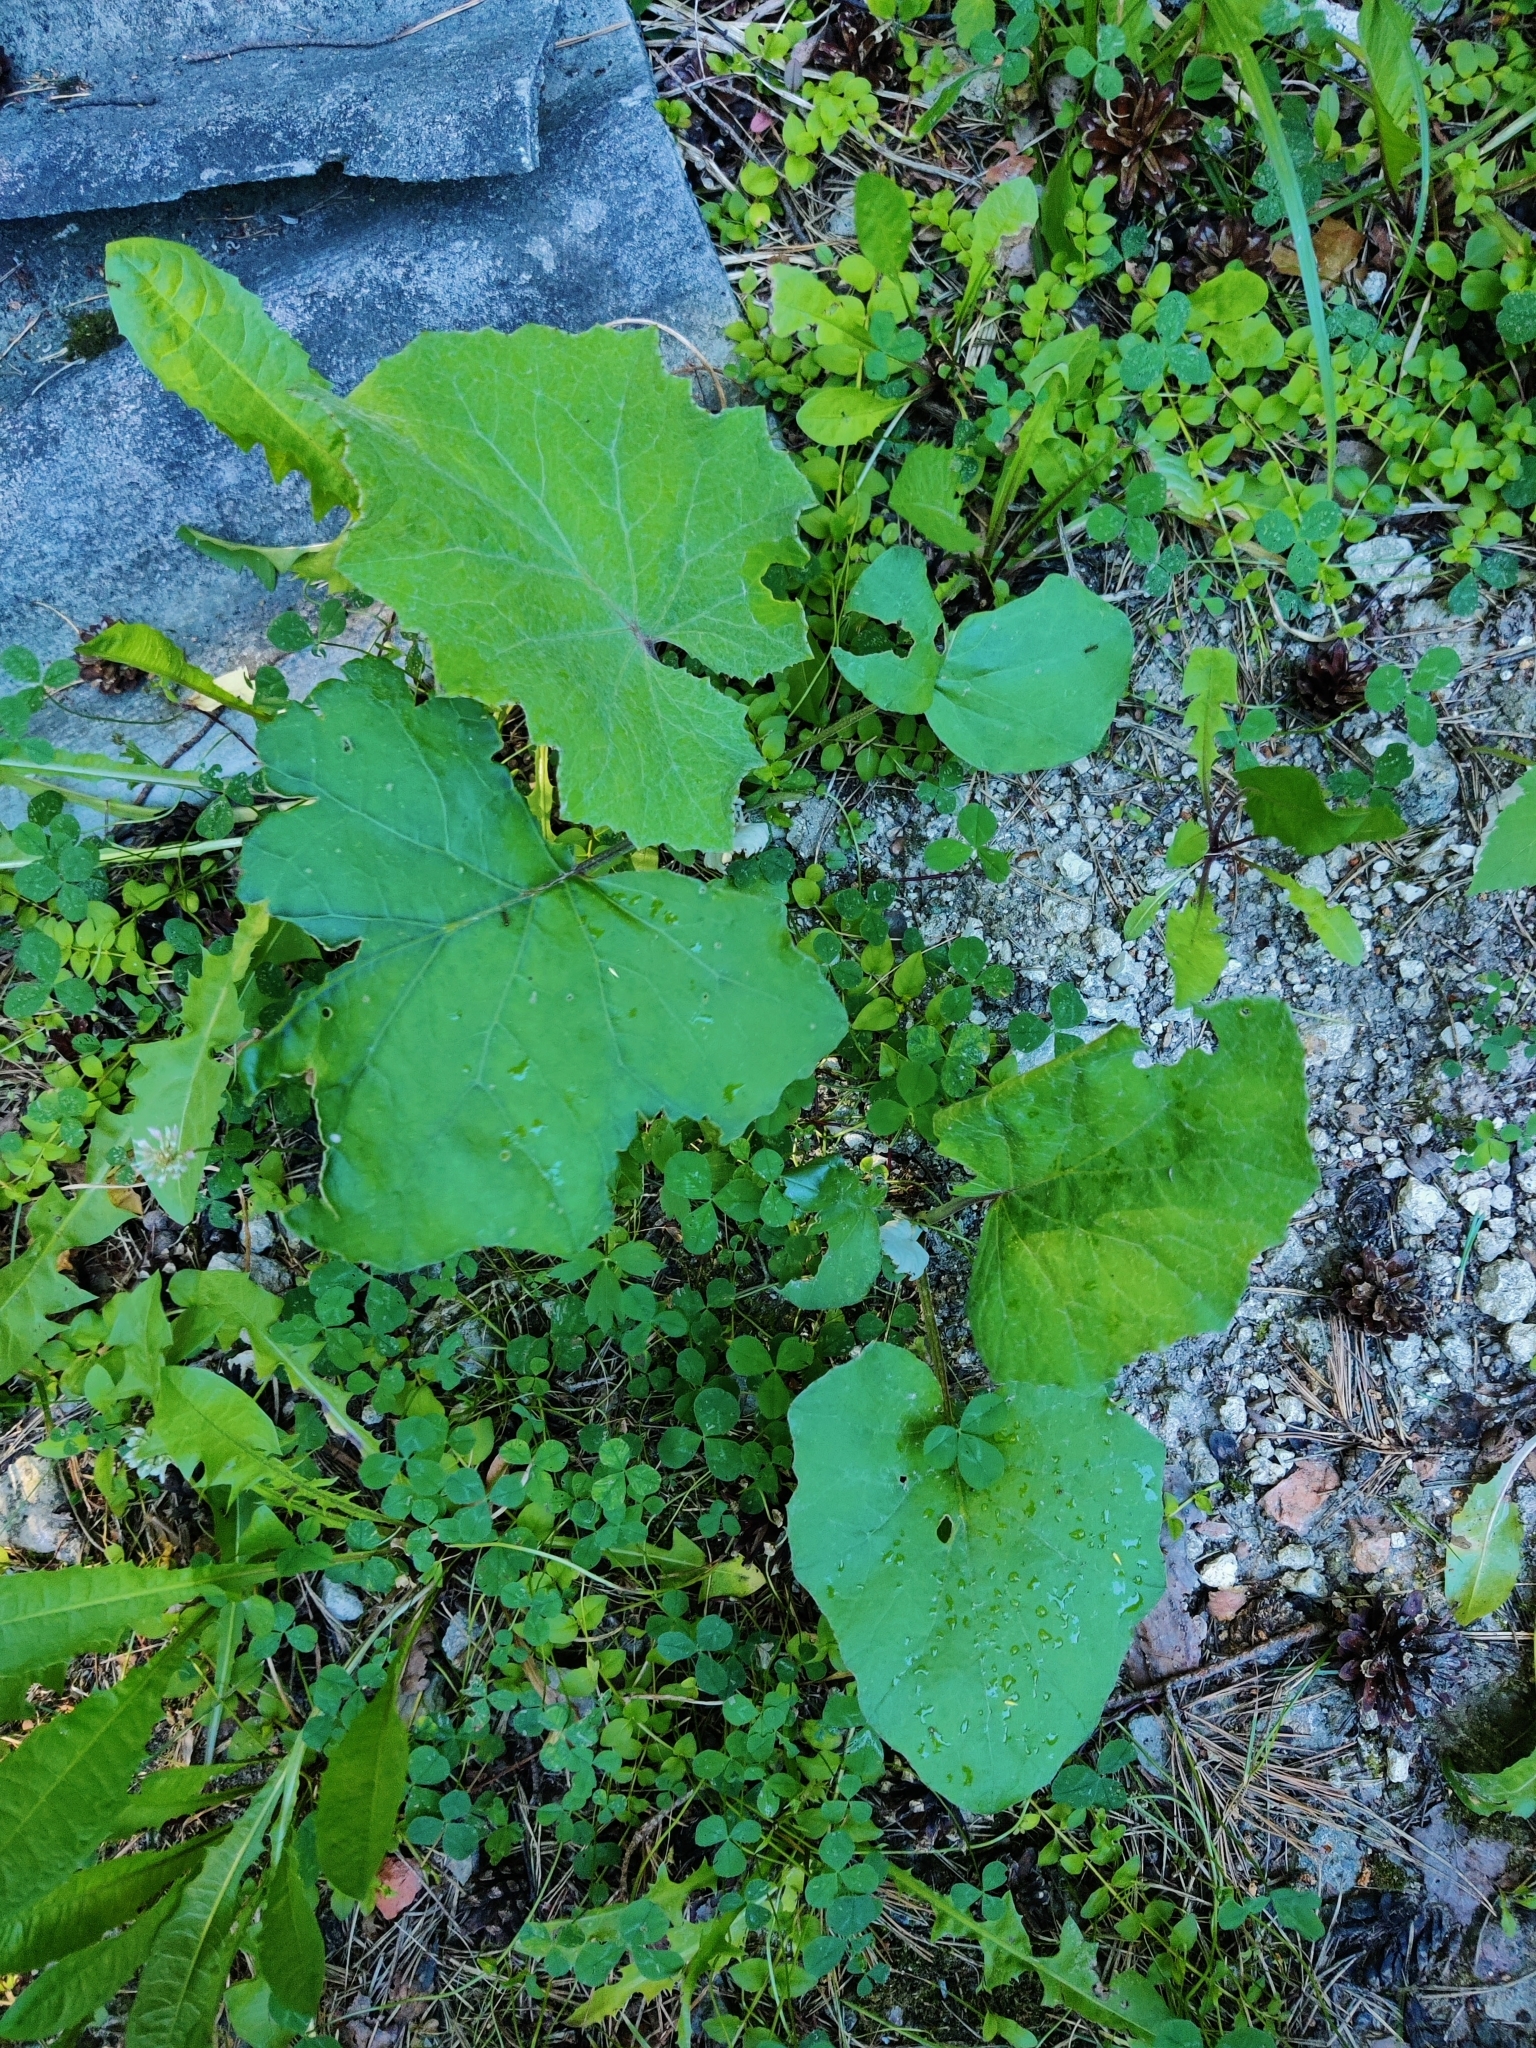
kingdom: Plantae
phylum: Tracheophyta
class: Magnoliopsida
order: Asterales
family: Asteraceae
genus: Tussilago
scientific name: Tussilago farfara
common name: Coltsfoot
